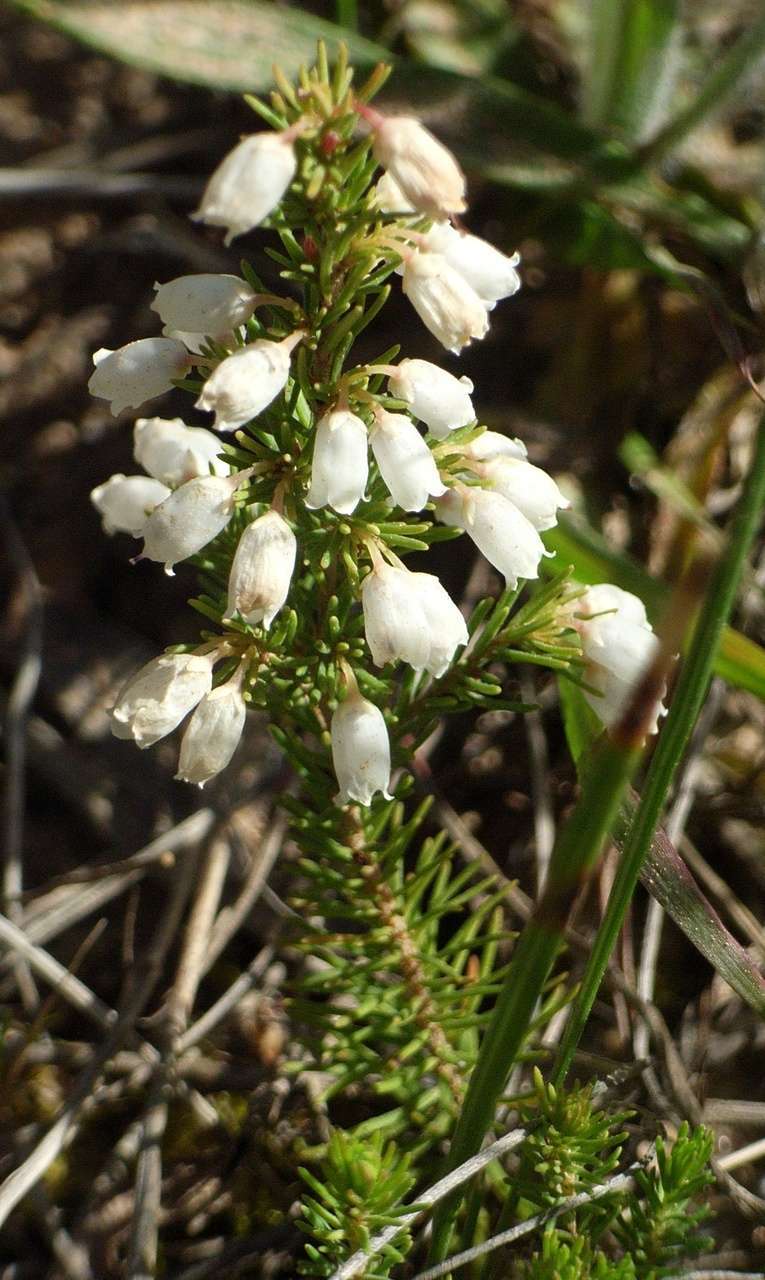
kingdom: Plantae
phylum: Tracheophyta
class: Magnoliopsida
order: Ericales
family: Ericaceae
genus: Erica
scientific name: Erica lusitanica
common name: Spanish heath
